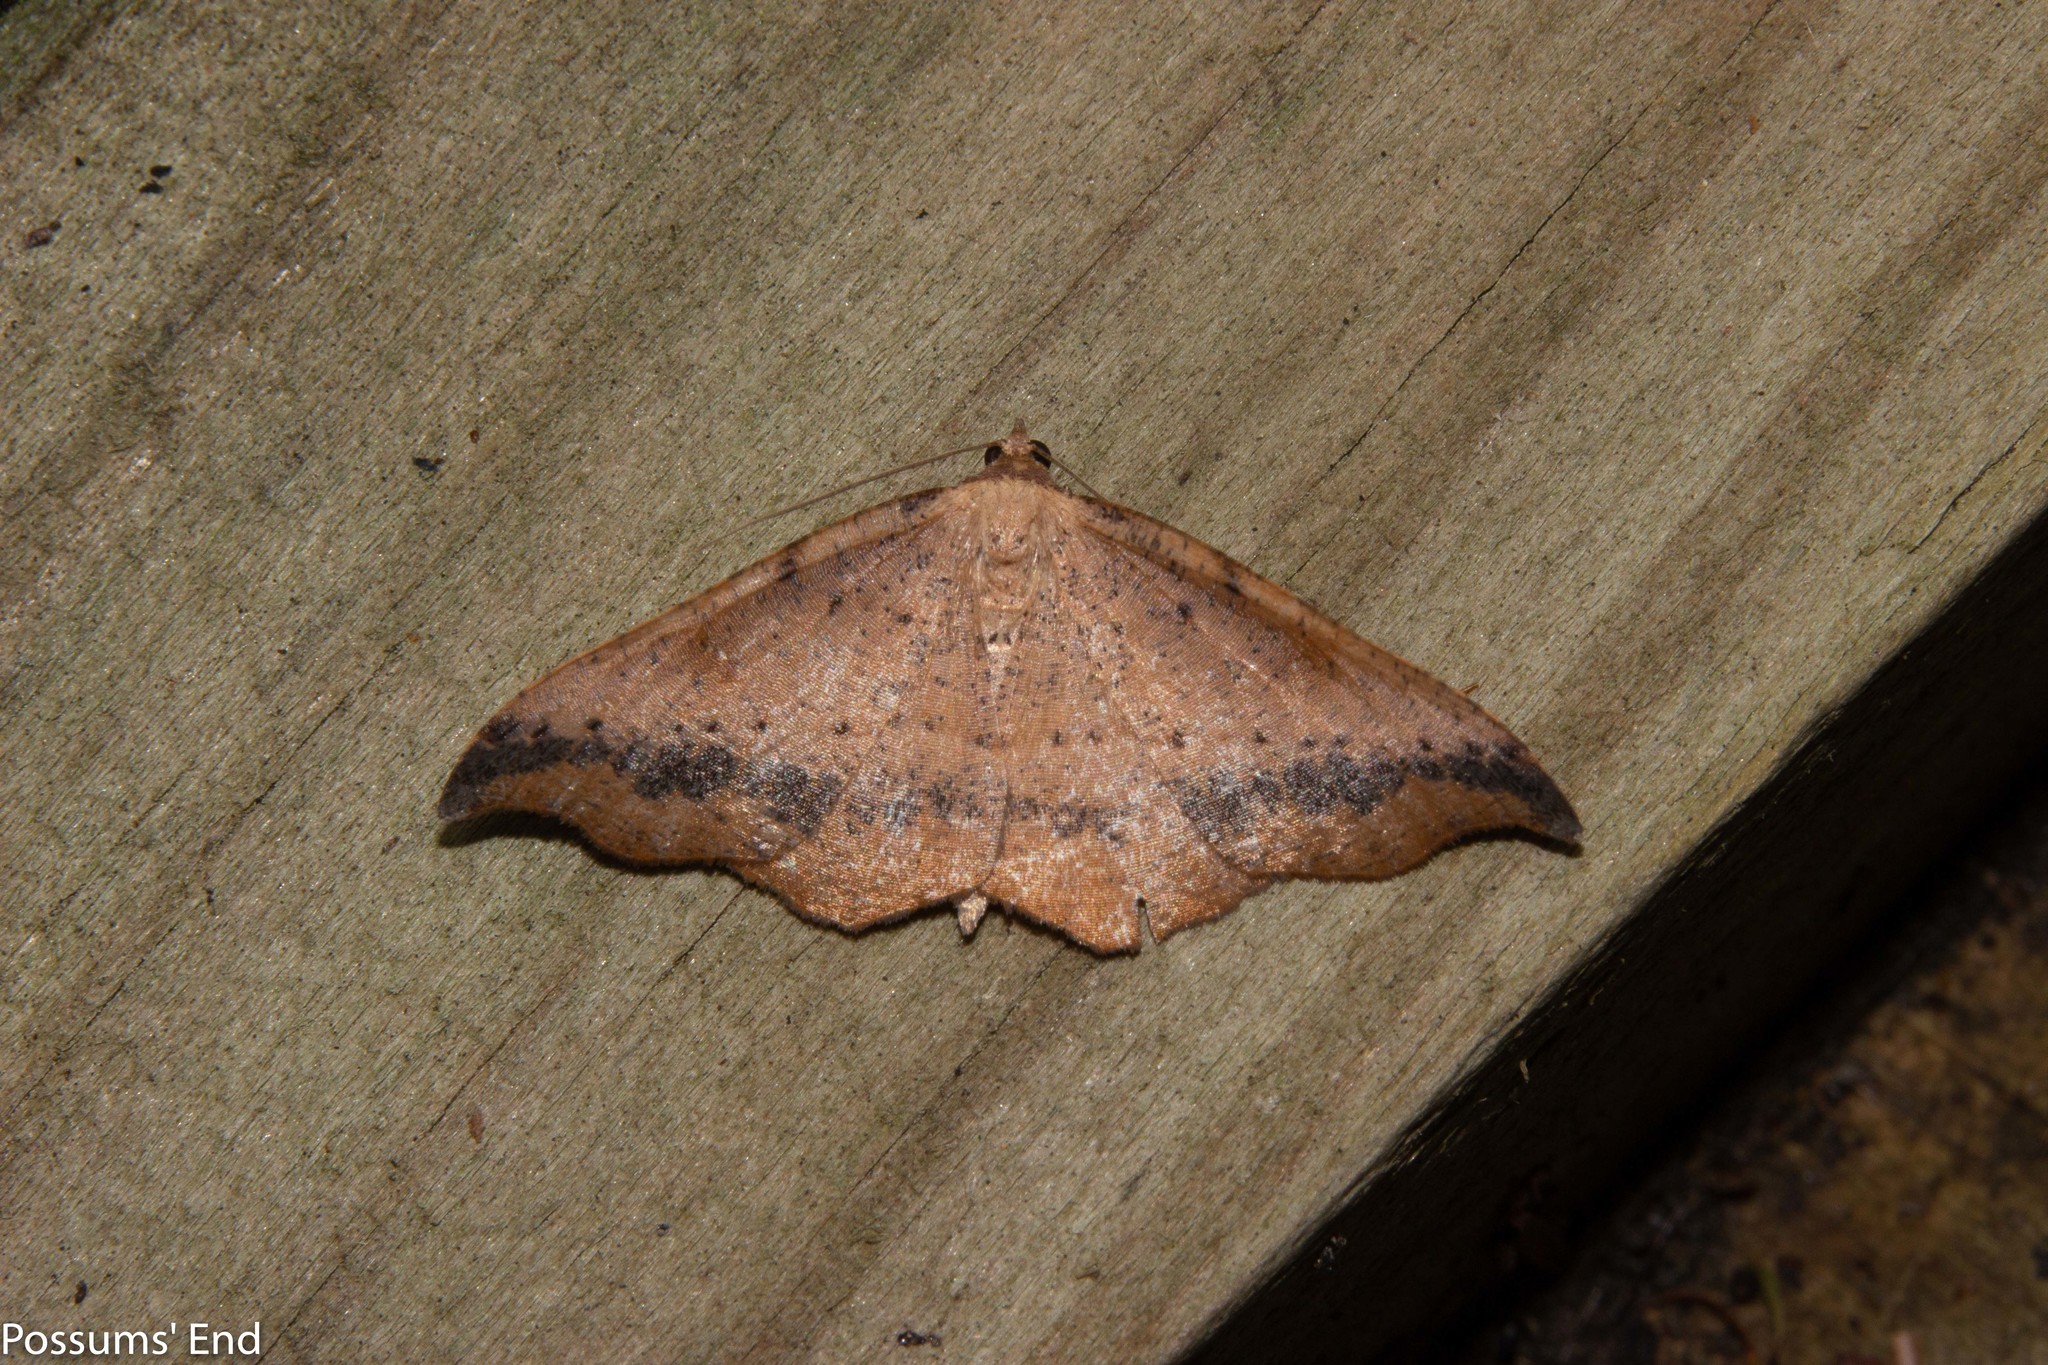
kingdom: Animalia
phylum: Arthropoda
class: Insecta
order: Lepidoptera
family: Geometridae
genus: Sarisa
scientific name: Sarisa muriferata
